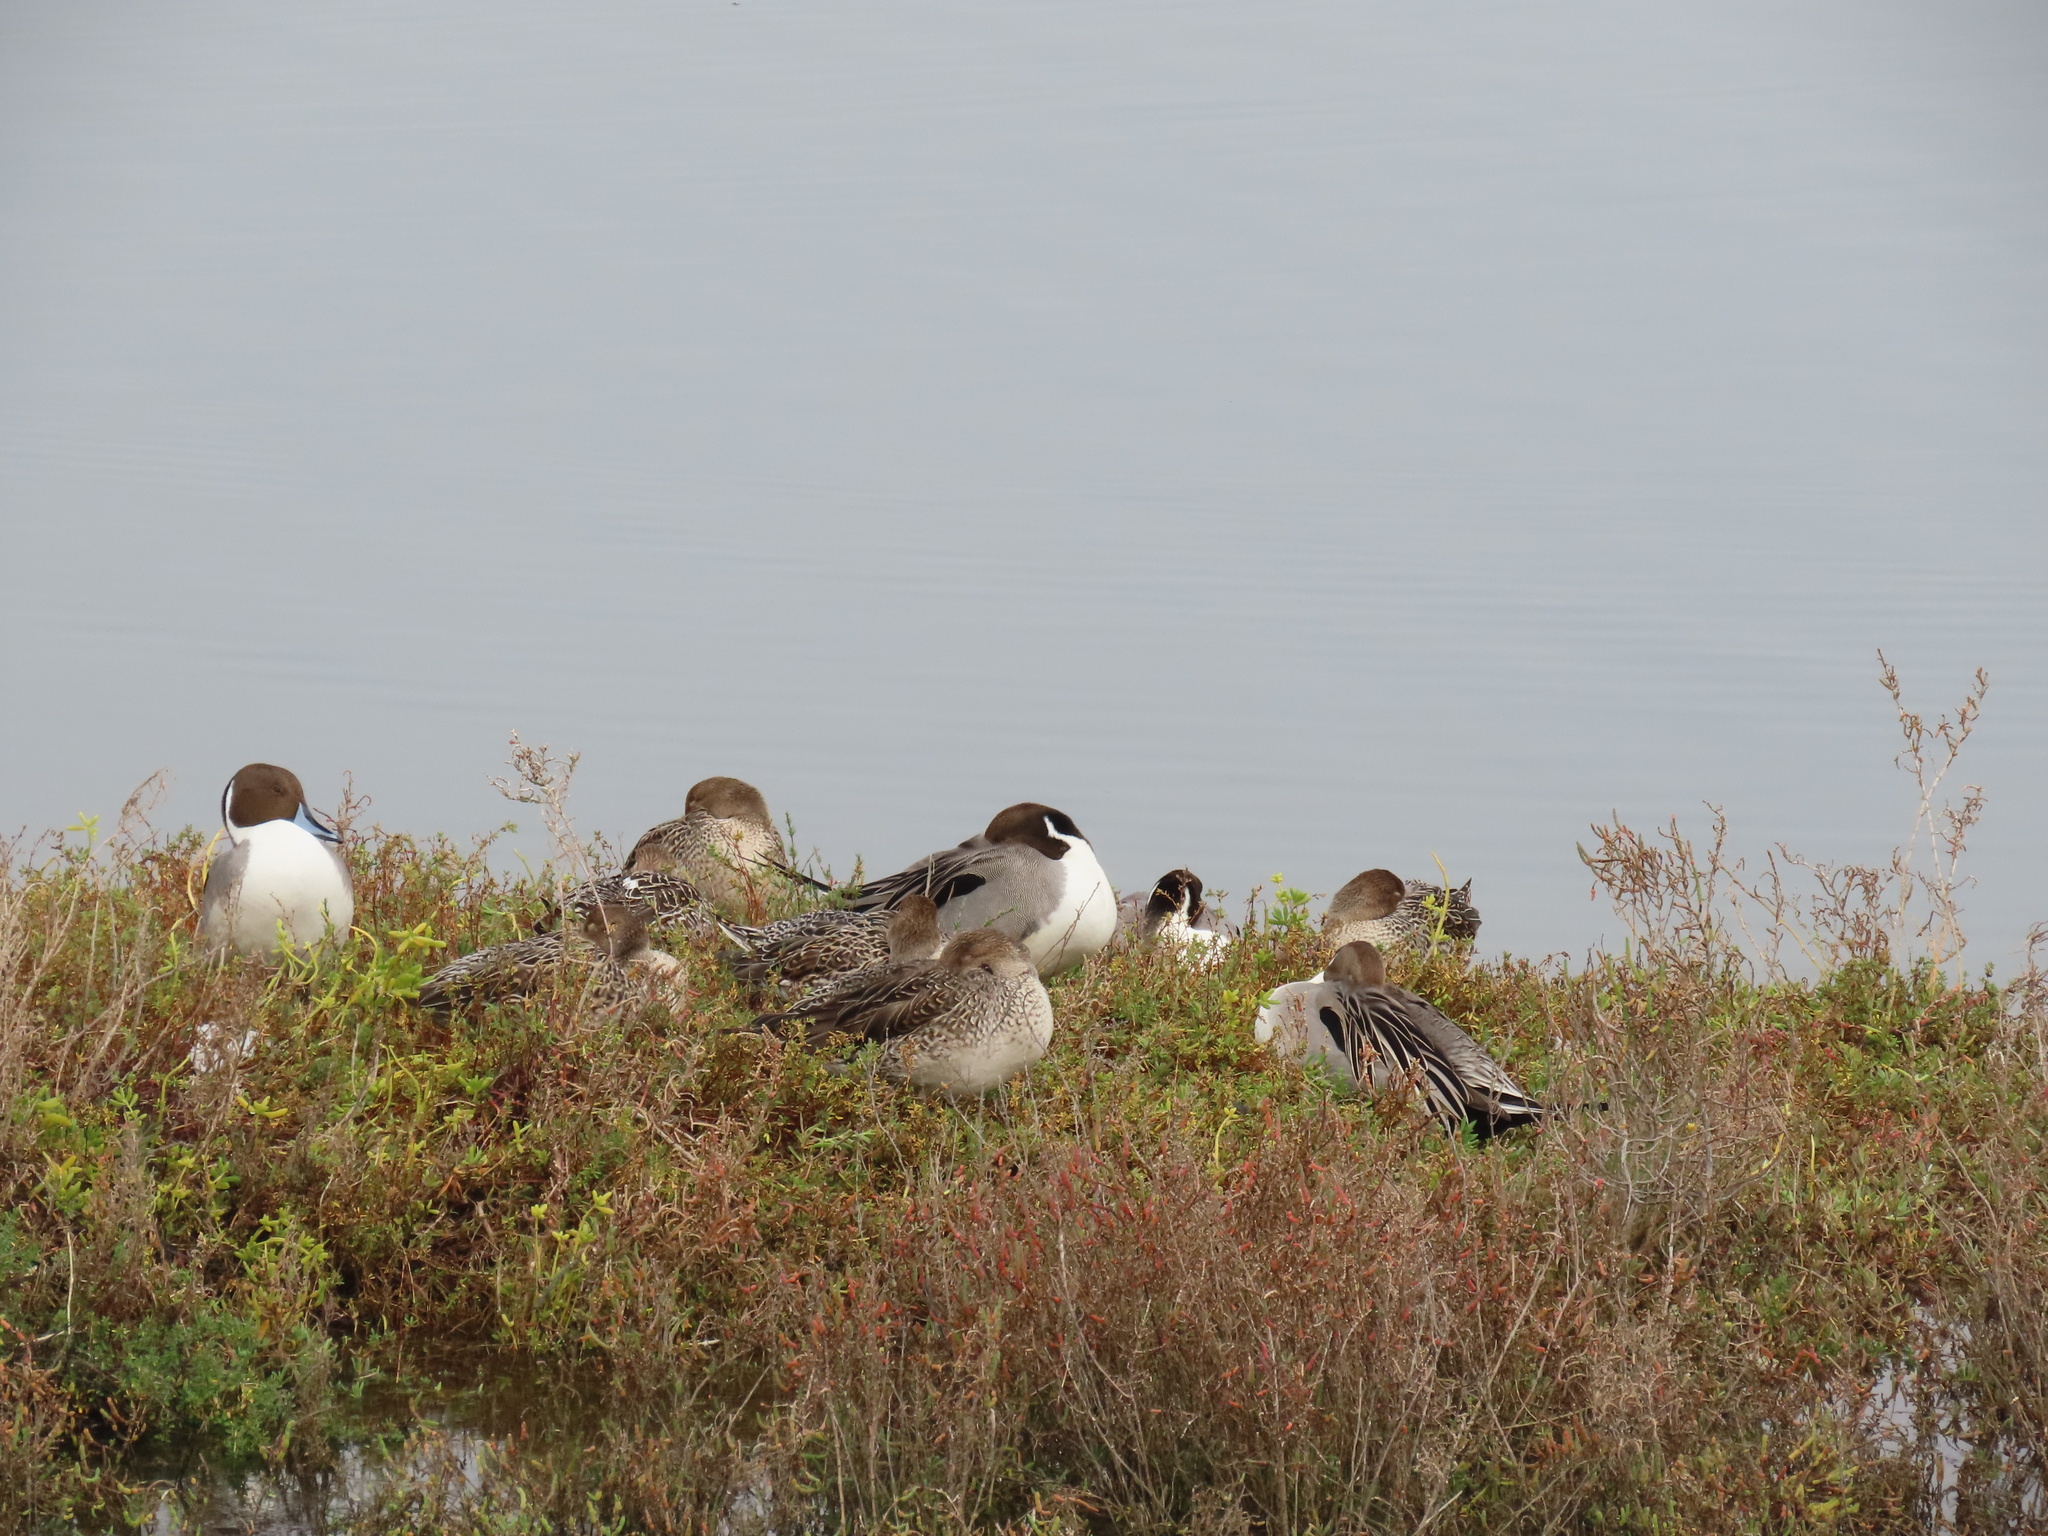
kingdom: Animalia
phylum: Chordata
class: Aves
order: Anseriformes
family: Anatidae
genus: Anas
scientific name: Anas acuta
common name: Northern pintail
